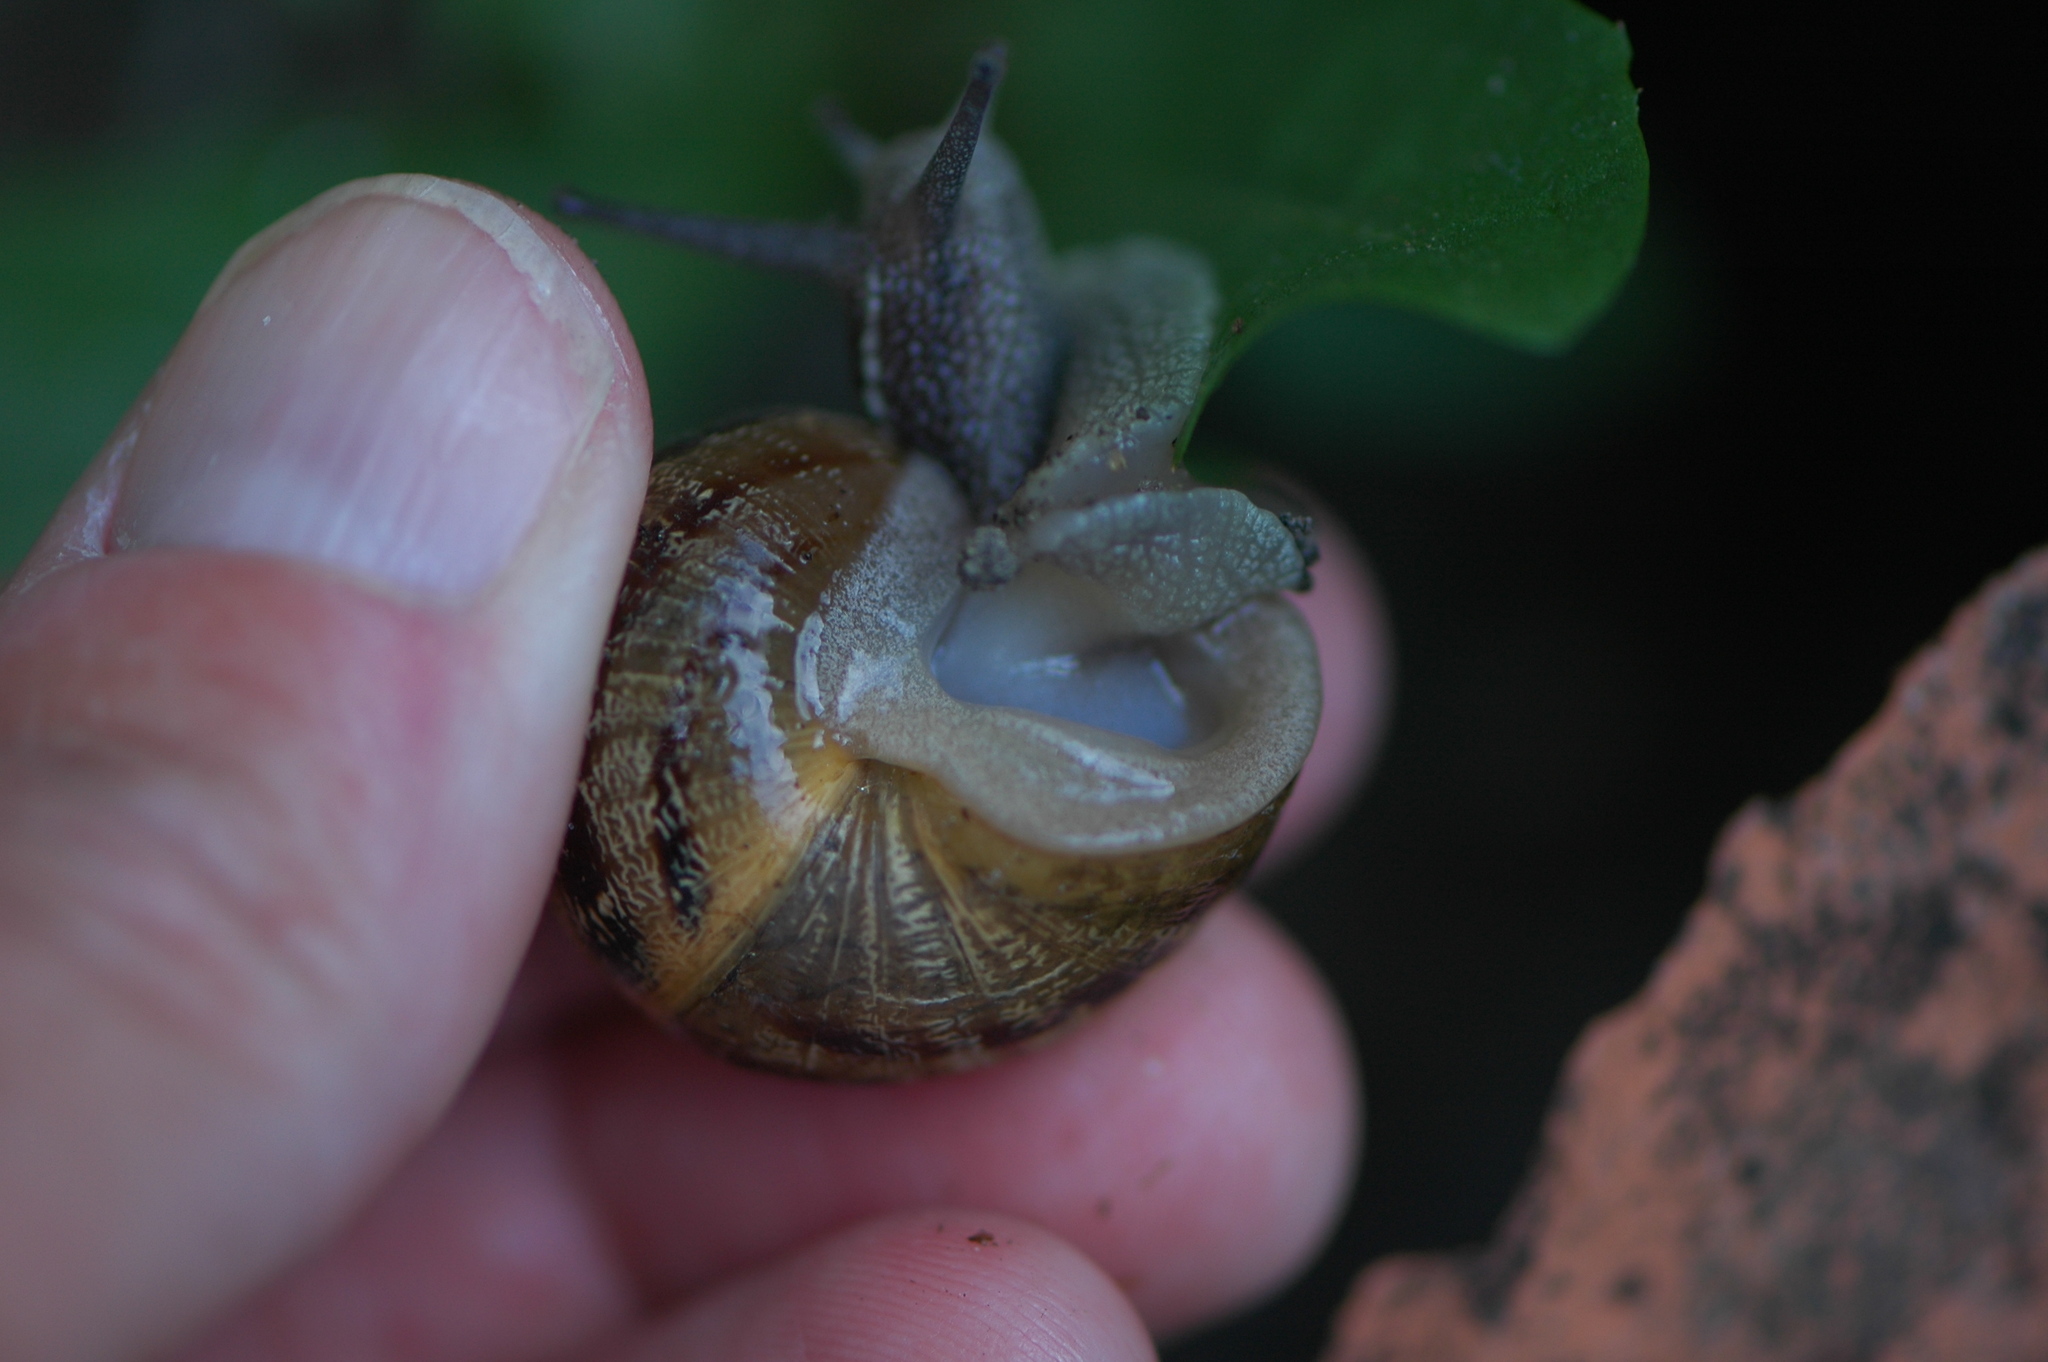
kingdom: Animalia
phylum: Mollusca
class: Gastropoda
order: Stylommatophora
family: Helicidae
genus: Cornu
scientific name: Cornu aspersum
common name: Brown garden snail
